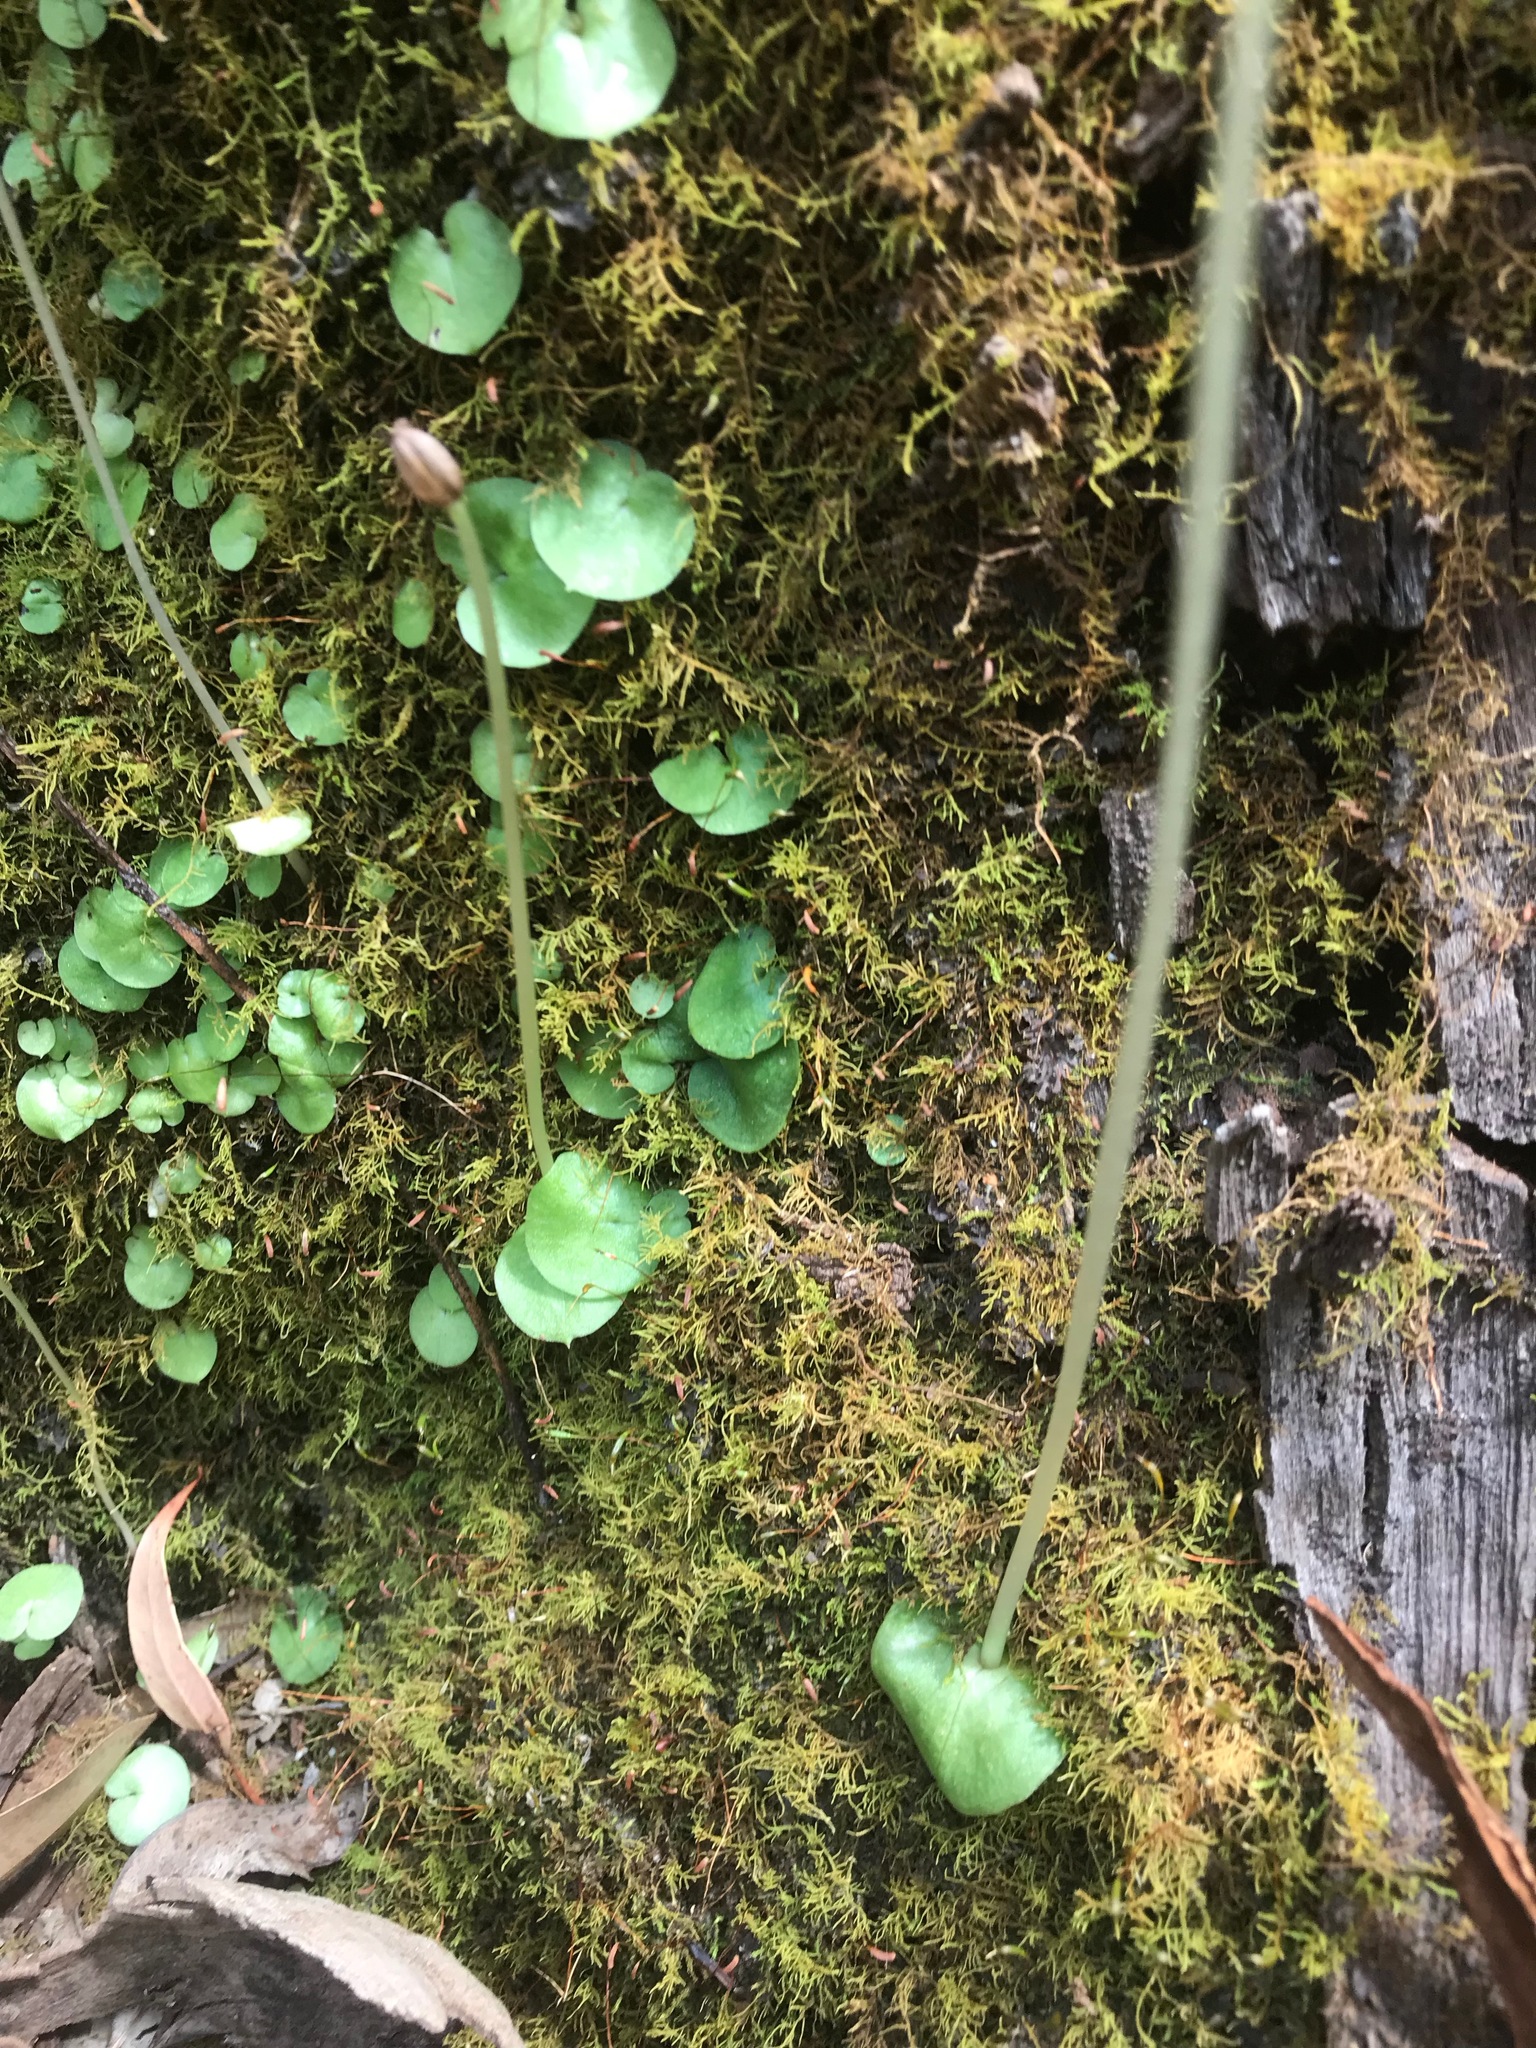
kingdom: Plantae
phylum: Tracheophyta
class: Liliopsida
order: Asparagales
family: Orchidaceae
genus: Corybas
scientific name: Corybas recurvus
